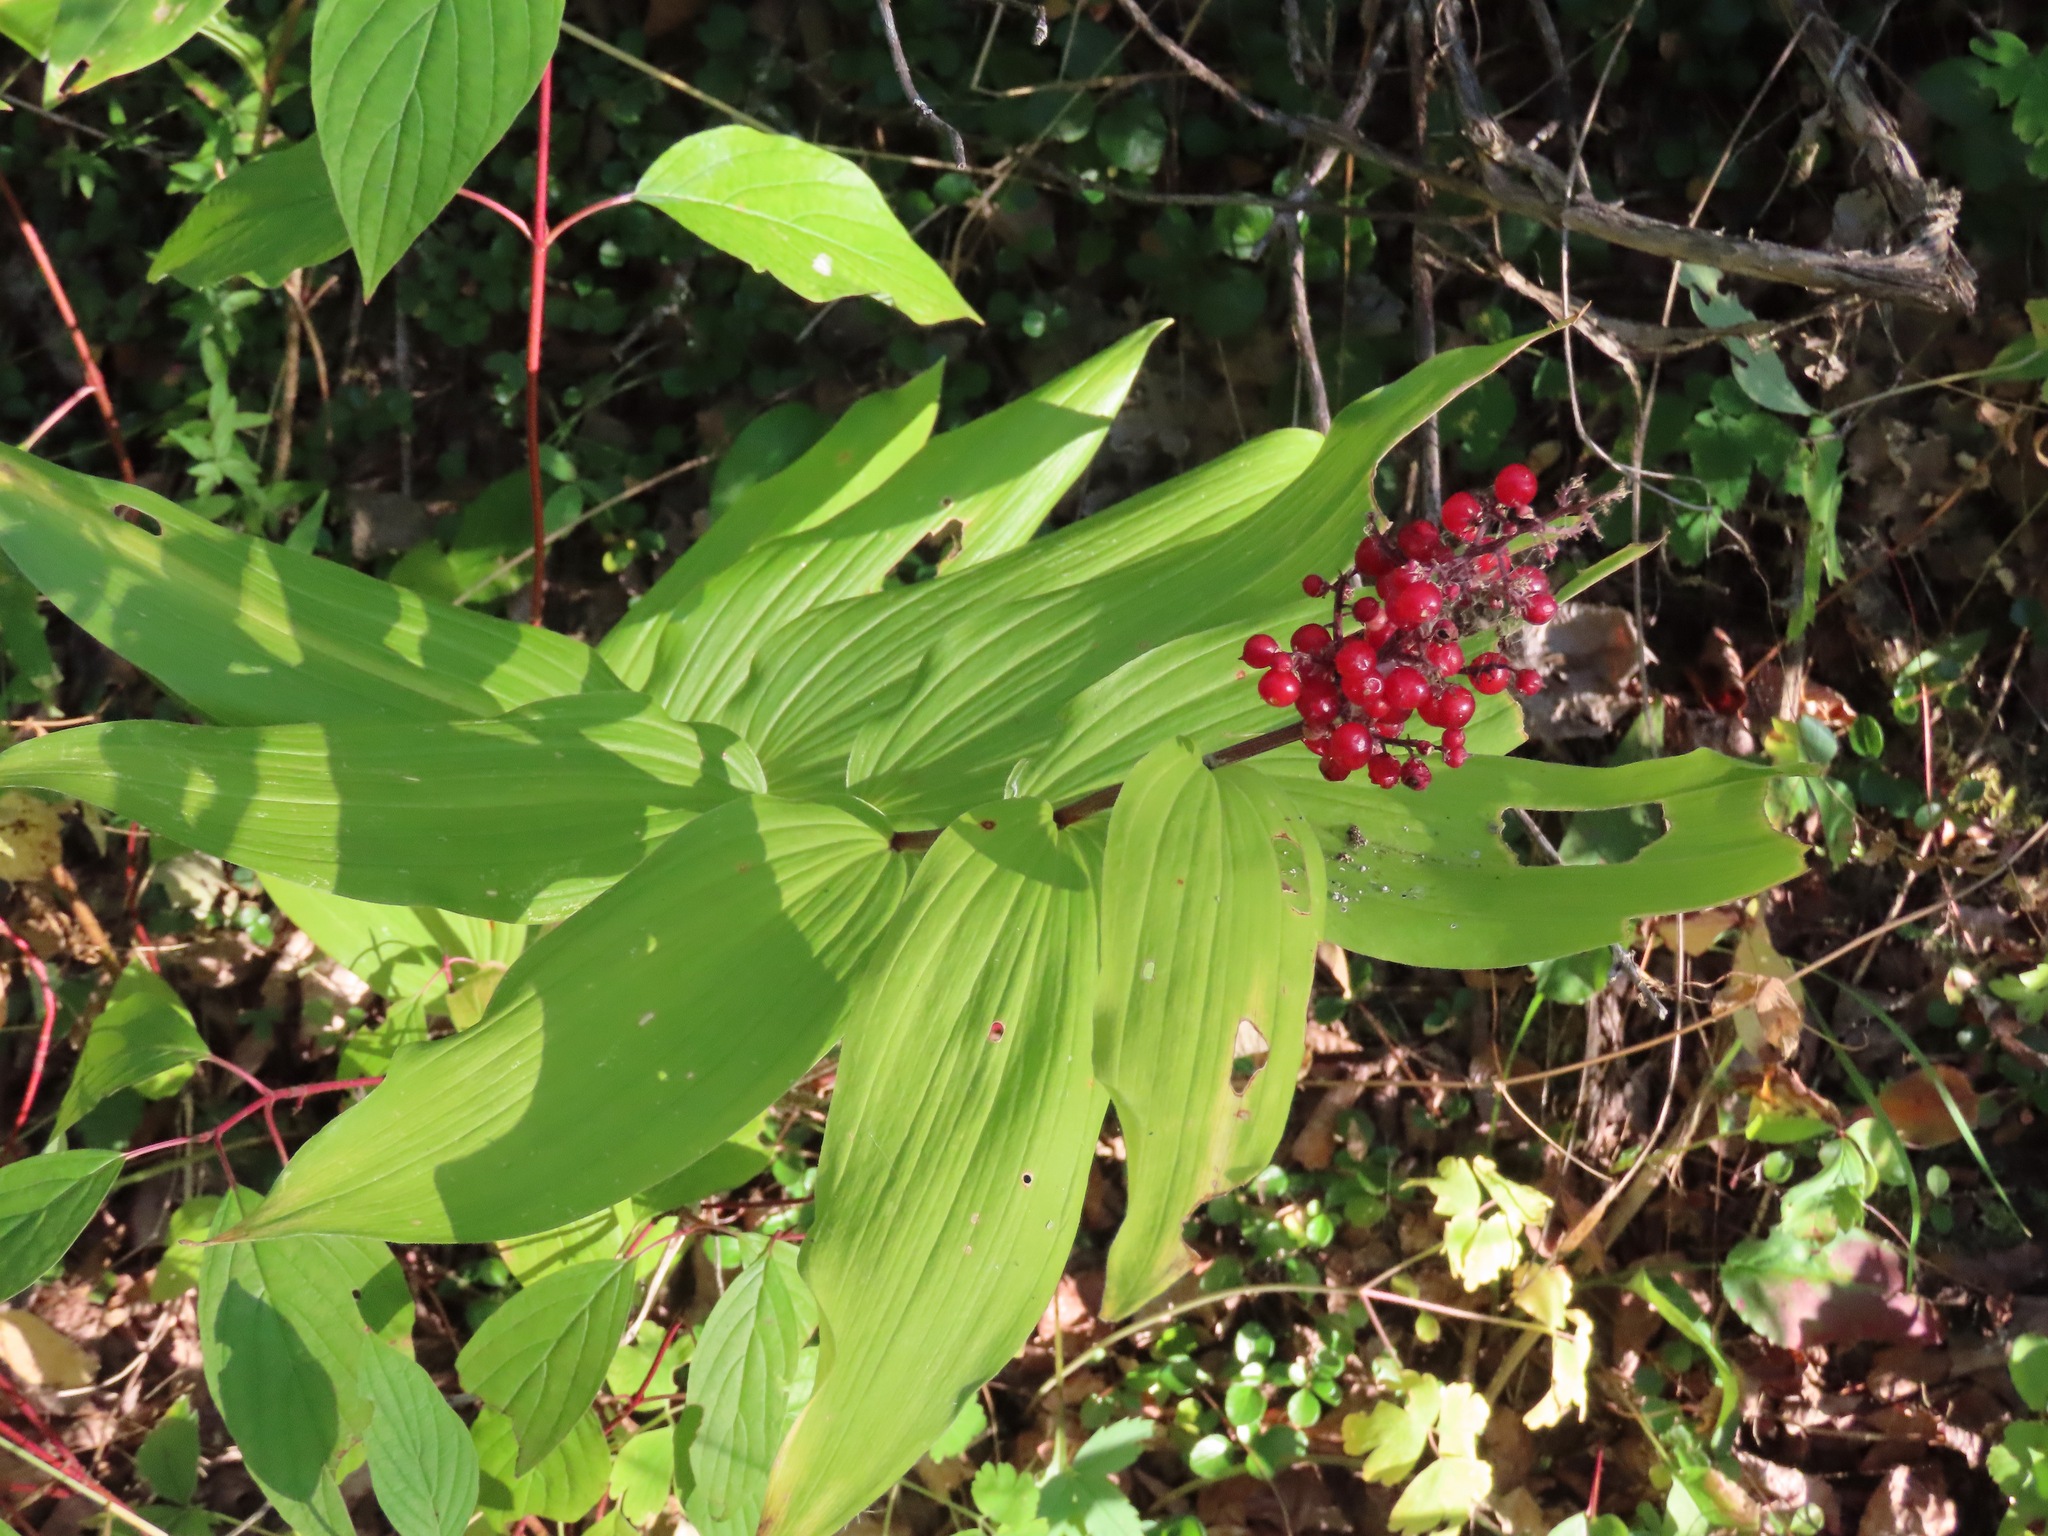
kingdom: Plantae
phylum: Tracheophyta
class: Liliopsida
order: Asparagales
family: Asparagaceae
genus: Maianthemum
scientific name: Maianthemum racemosum
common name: False spikenard
